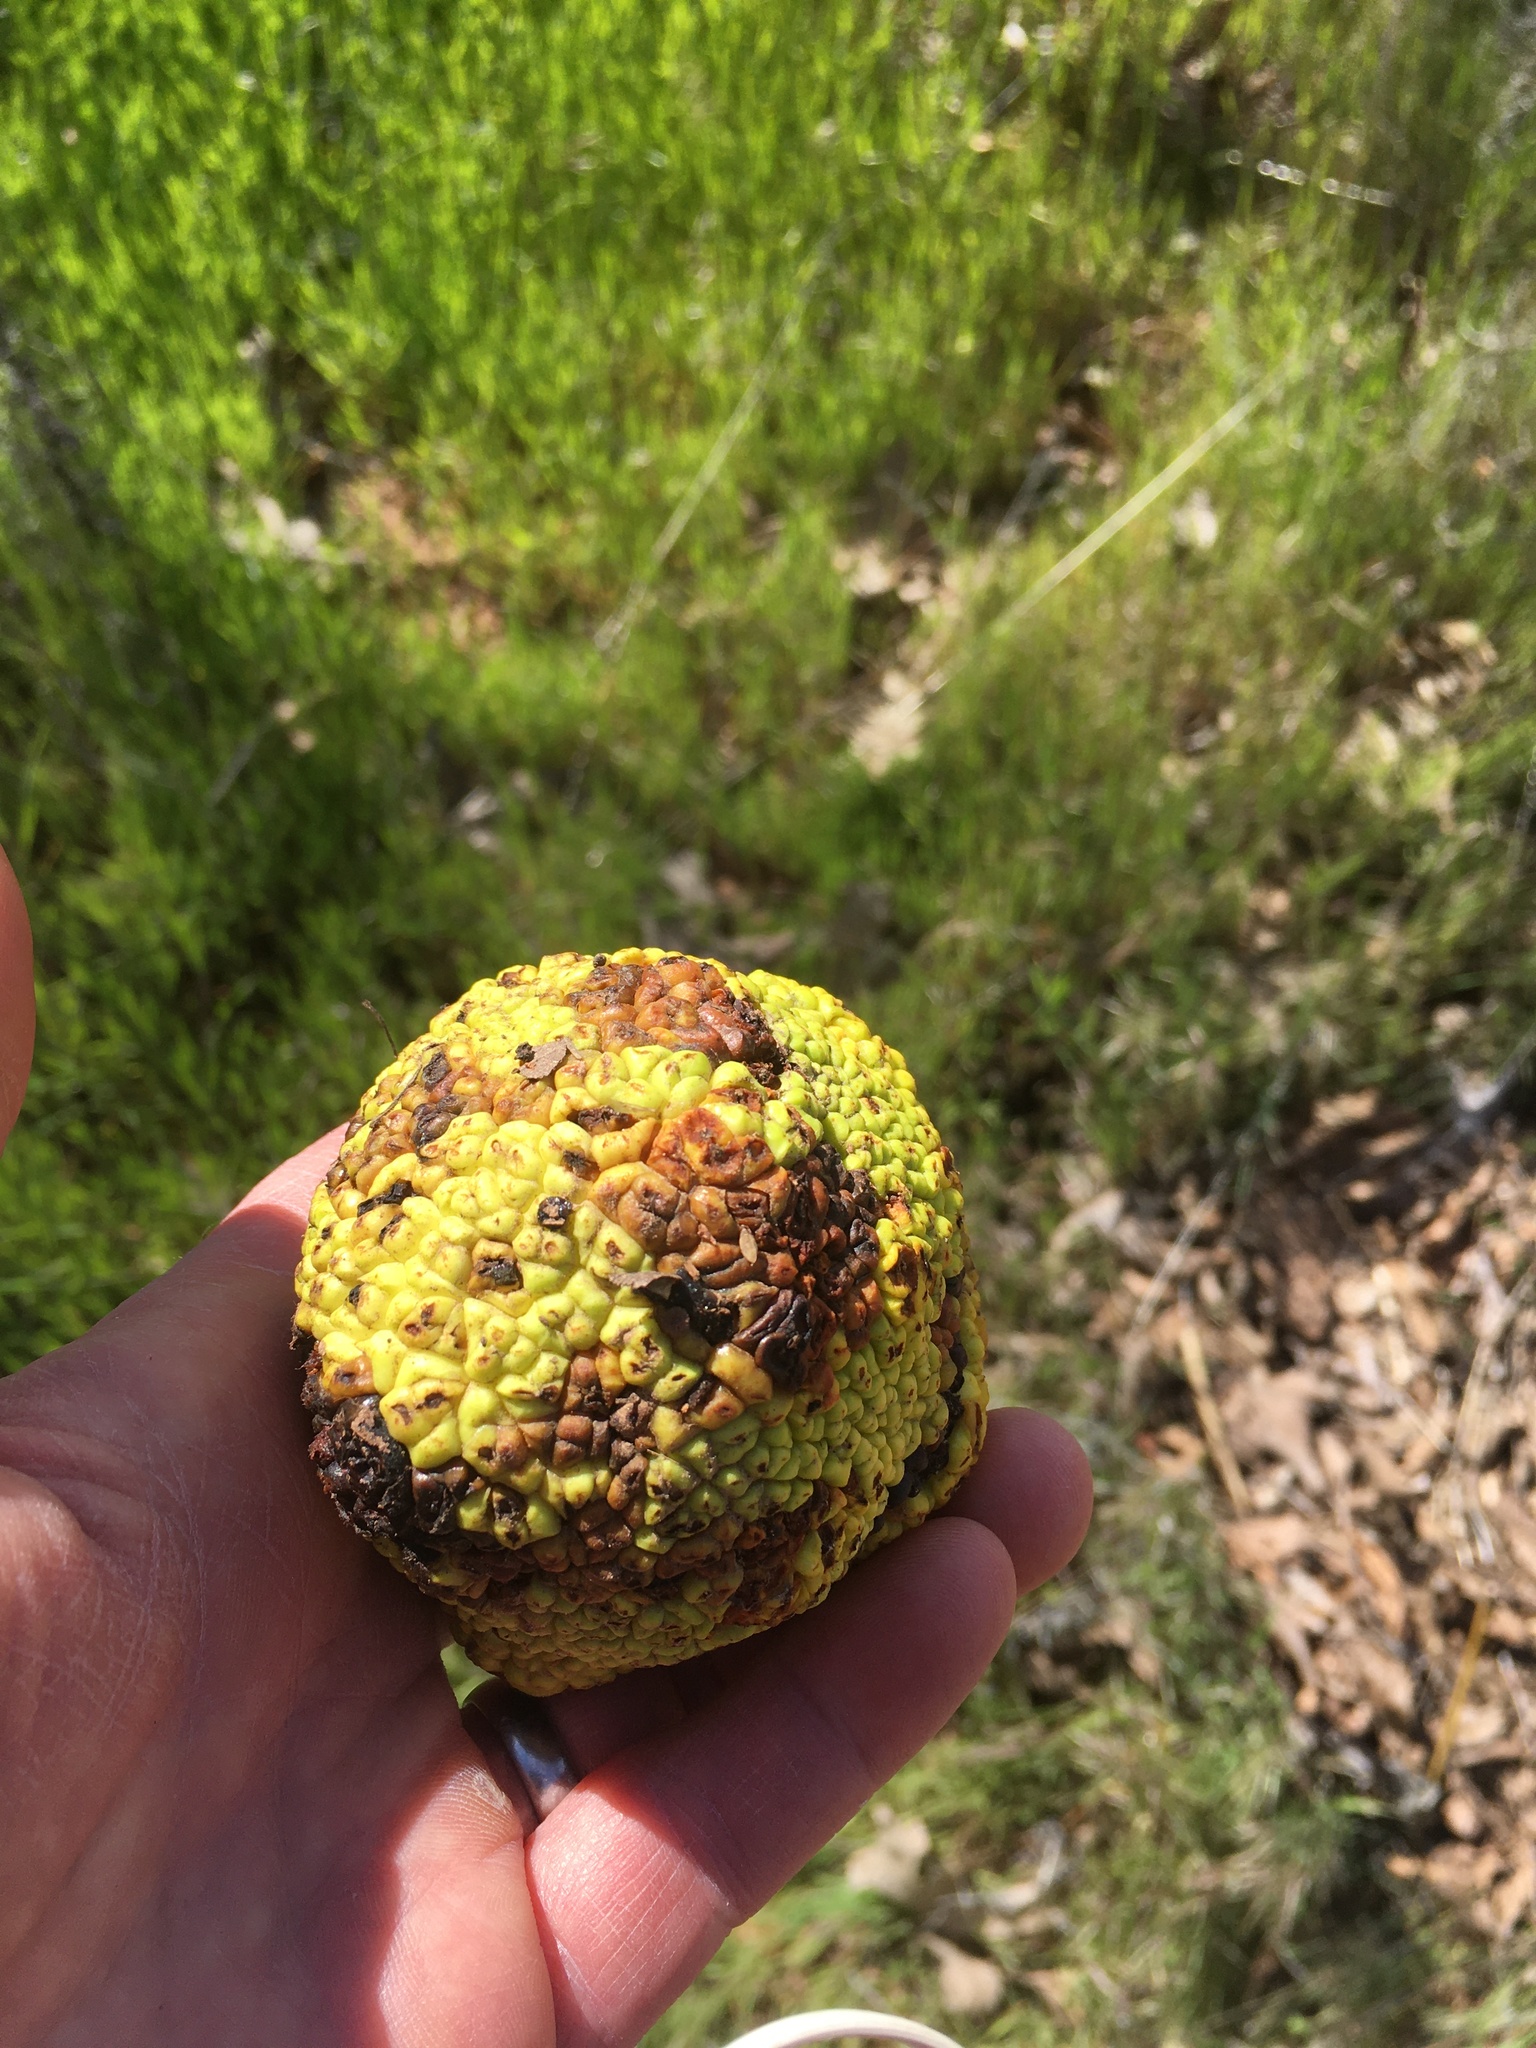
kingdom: Plantae
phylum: Tracheophyta
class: Magnoliopsida
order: Rosales
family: Moraceae
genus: Maclura
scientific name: Maclura pomifera
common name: Osage-orange
